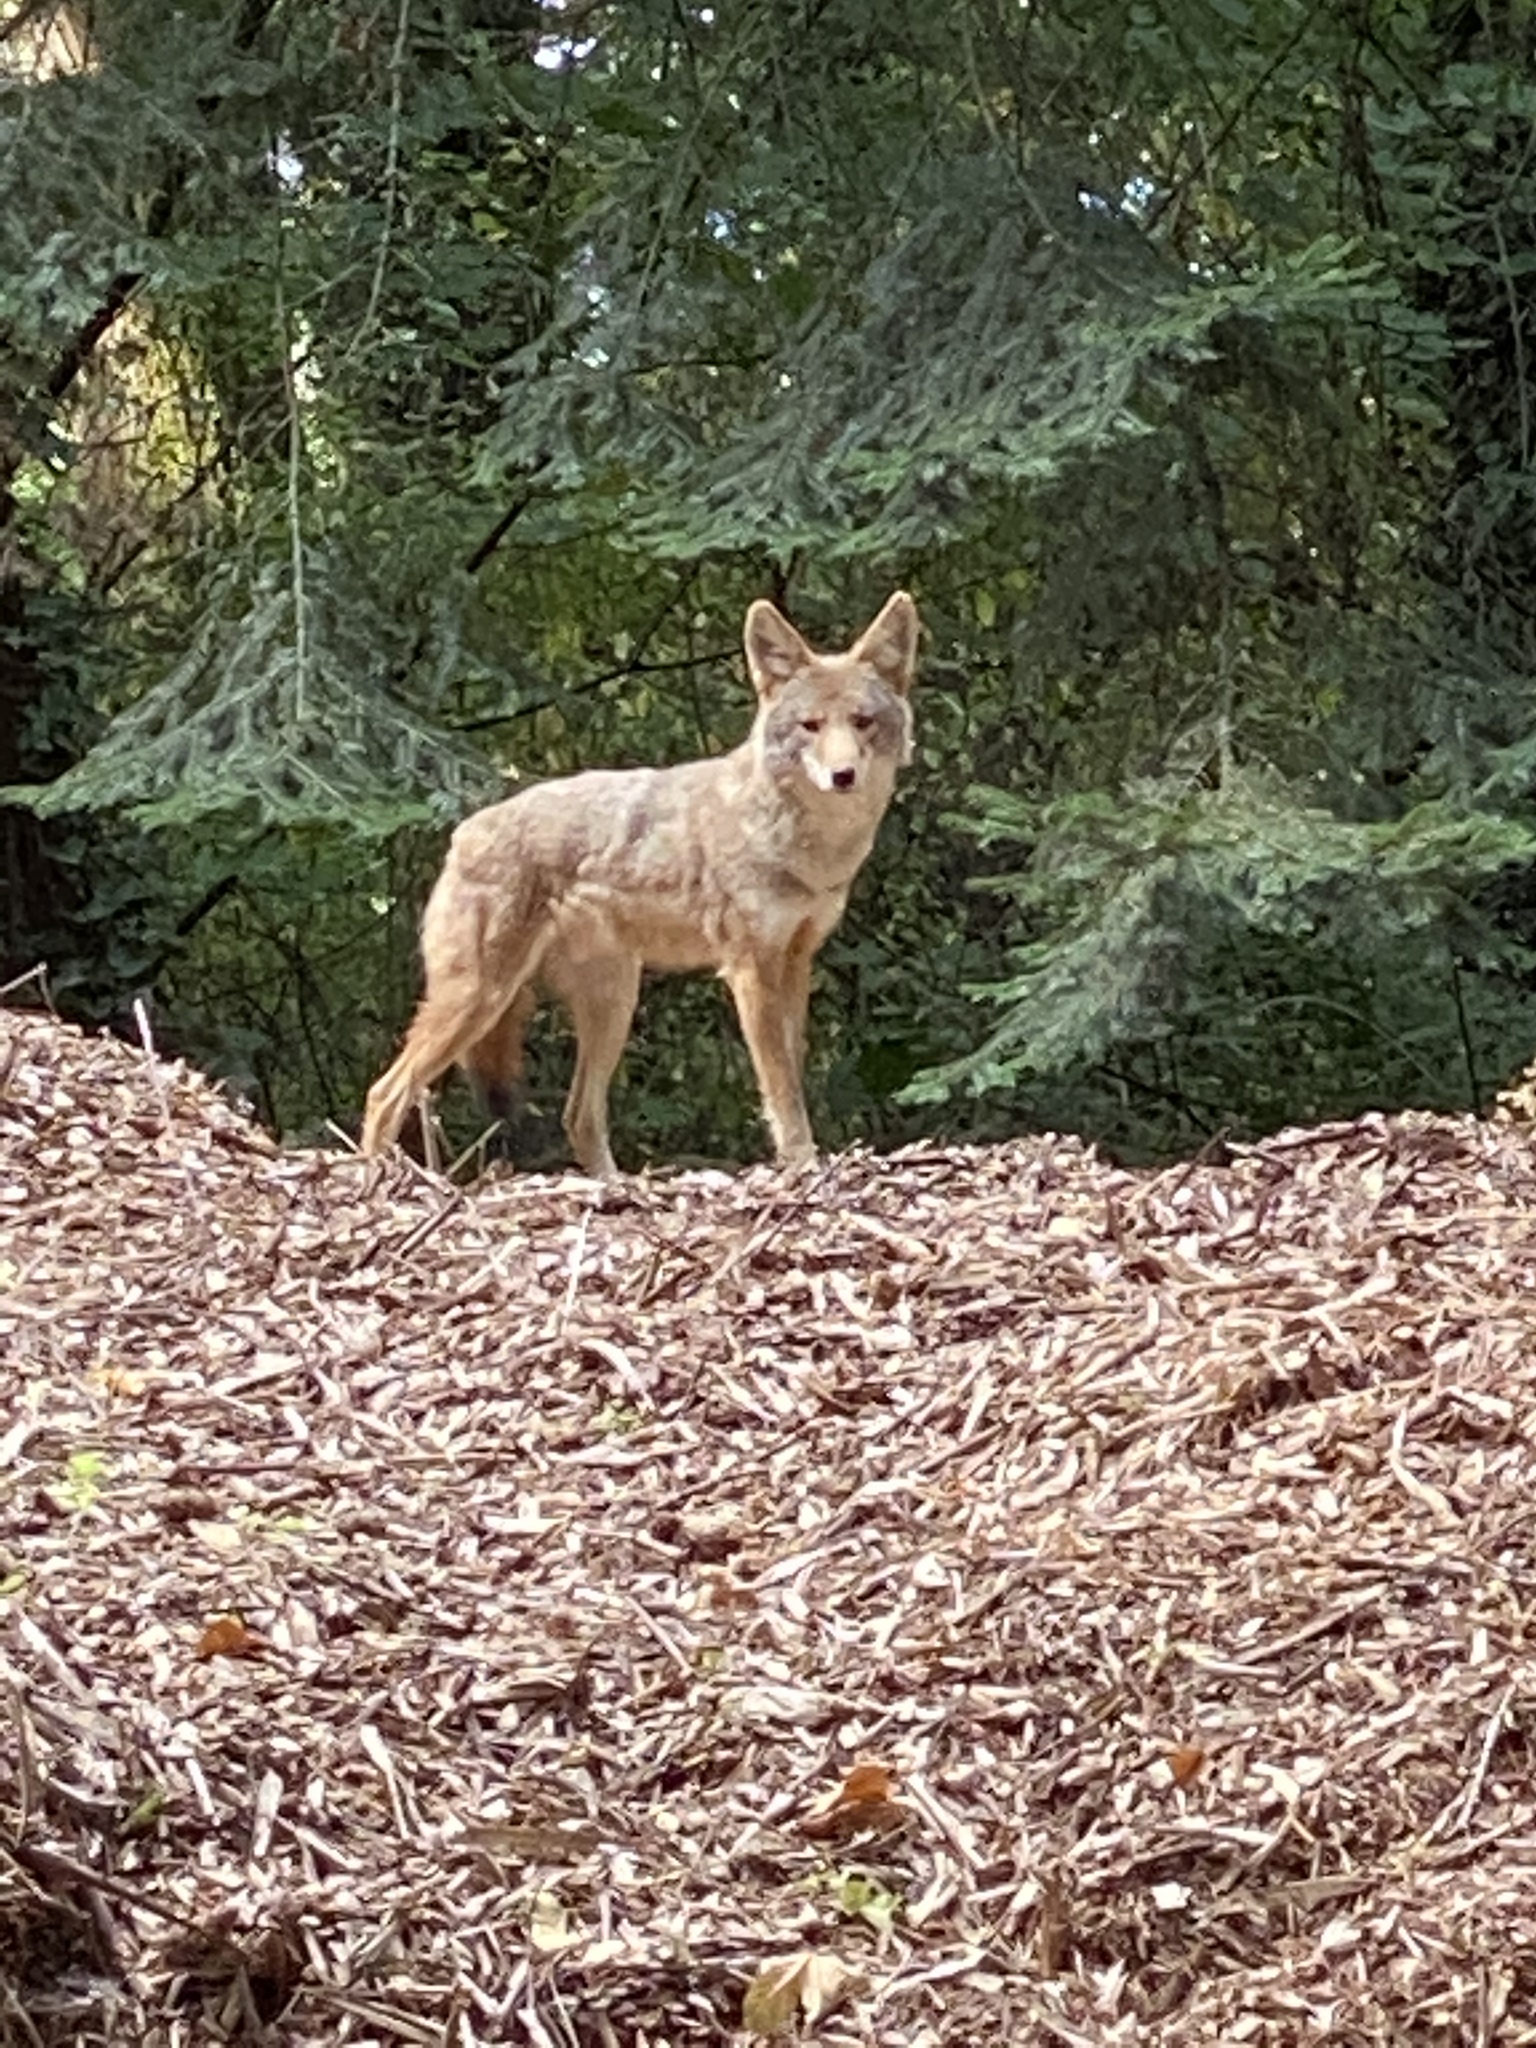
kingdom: Animalia
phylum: Chordata
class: Mammalia
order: Carnivora
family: Canidae
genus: Canis
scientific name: Canis latrans
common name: Coyote
